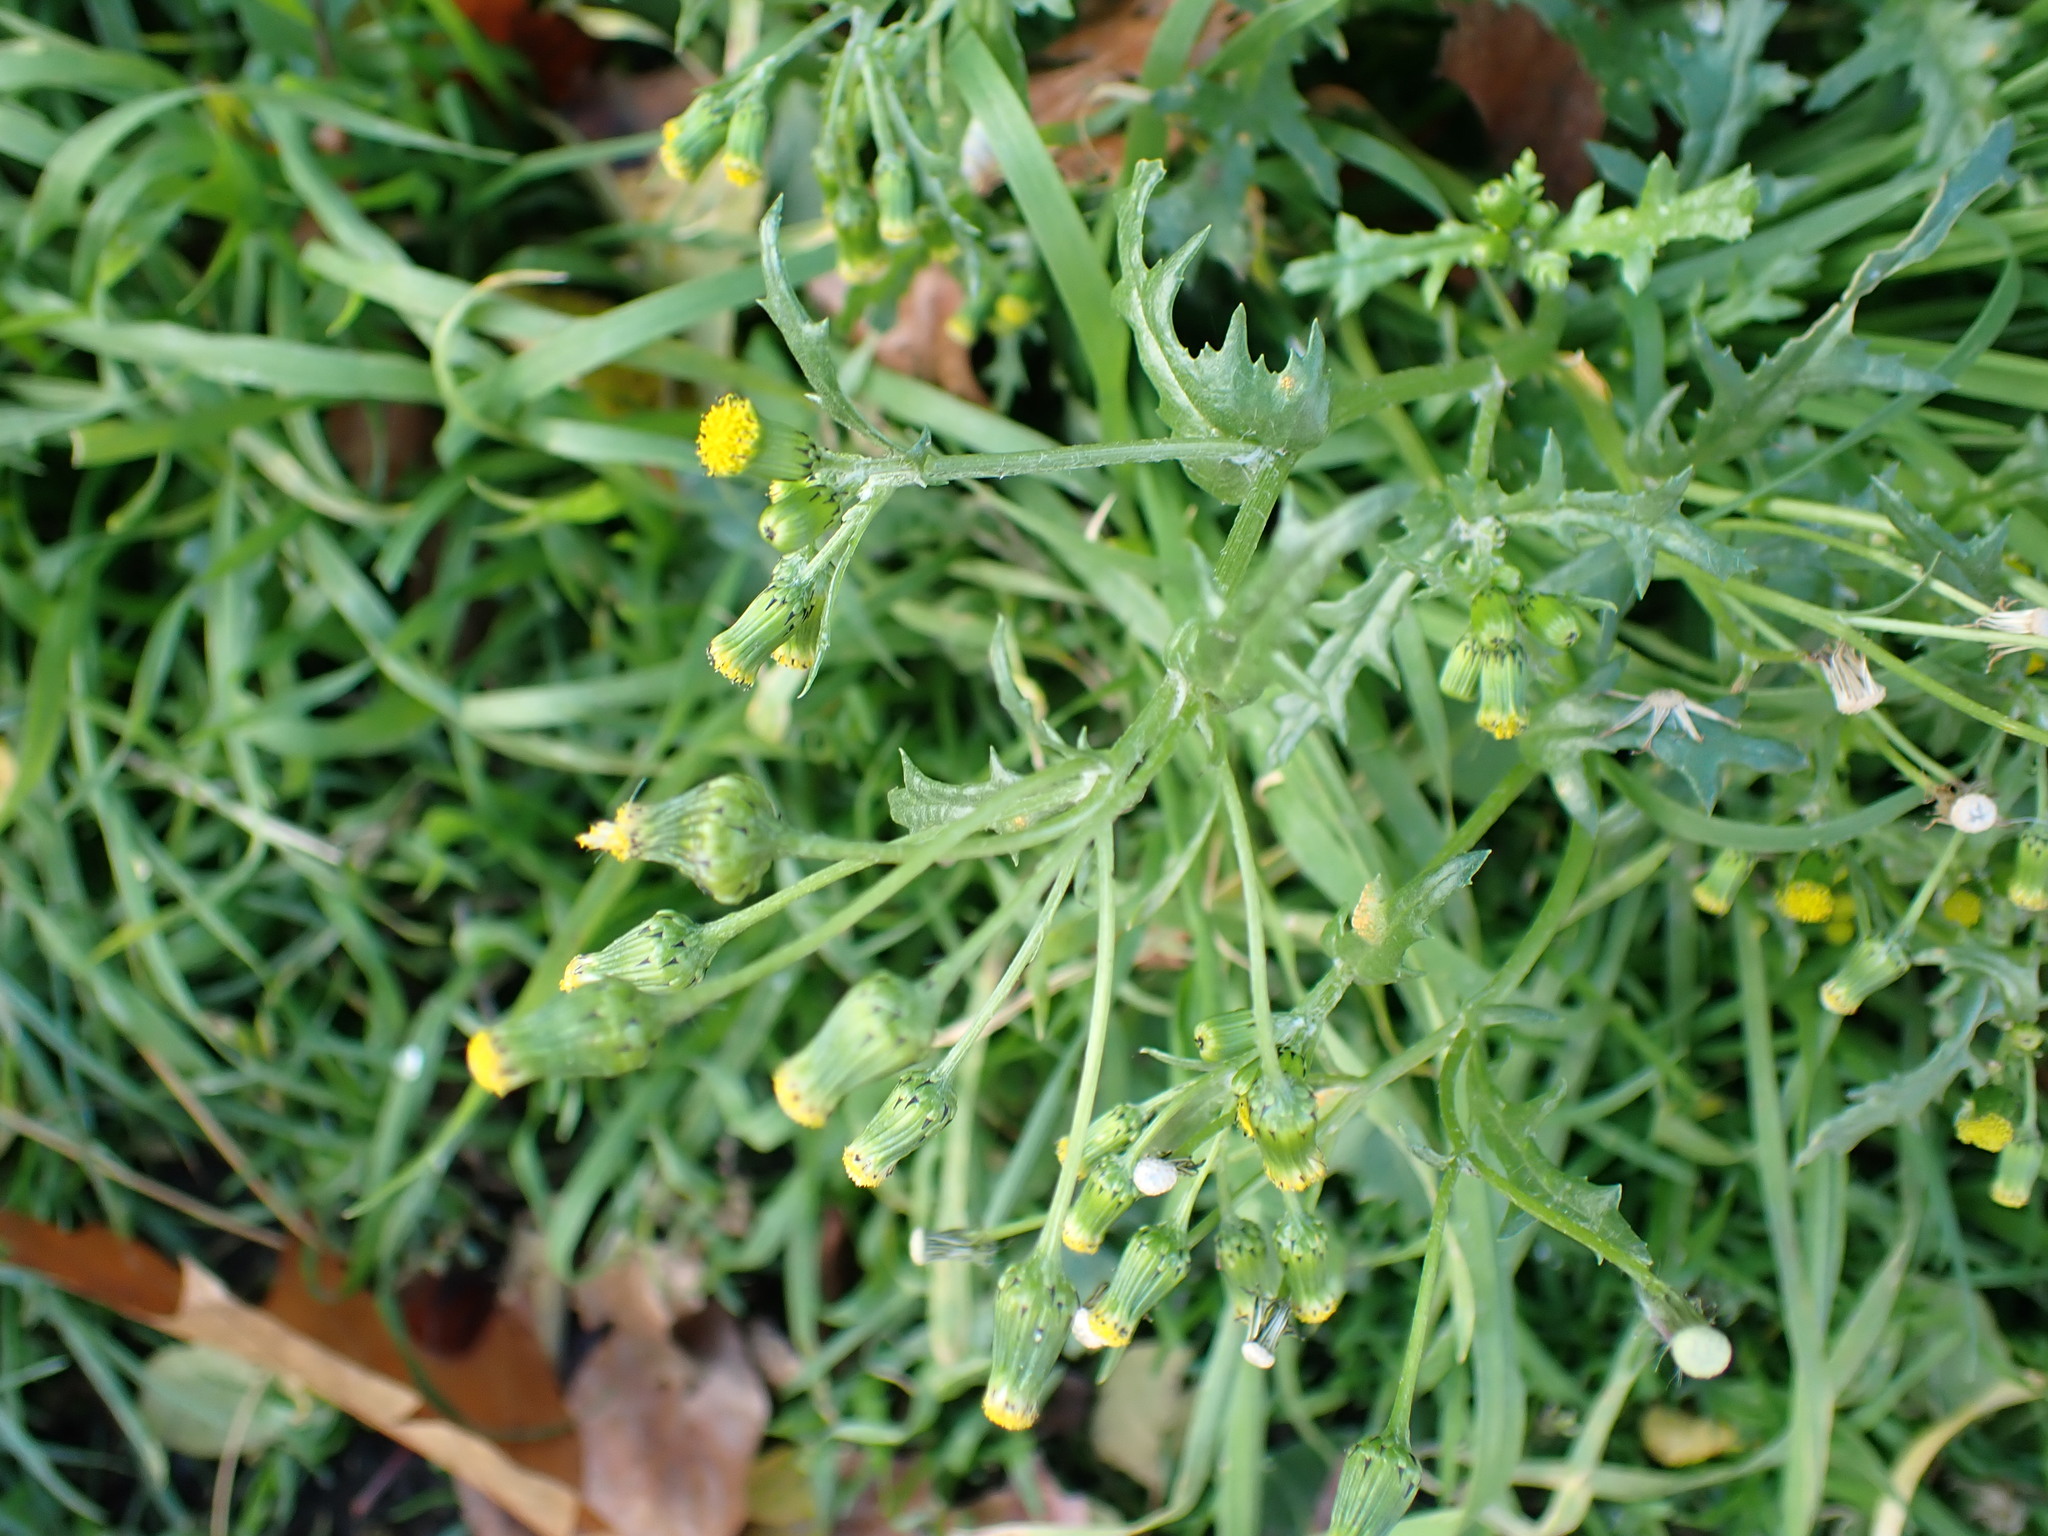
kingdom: Plantae
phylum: Tracheophyta
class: Magnoliopsida
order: Asterales
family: Asteraceae
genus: Senecio
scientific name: Senecio vulgaris
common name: Old-man-in-the-spring
